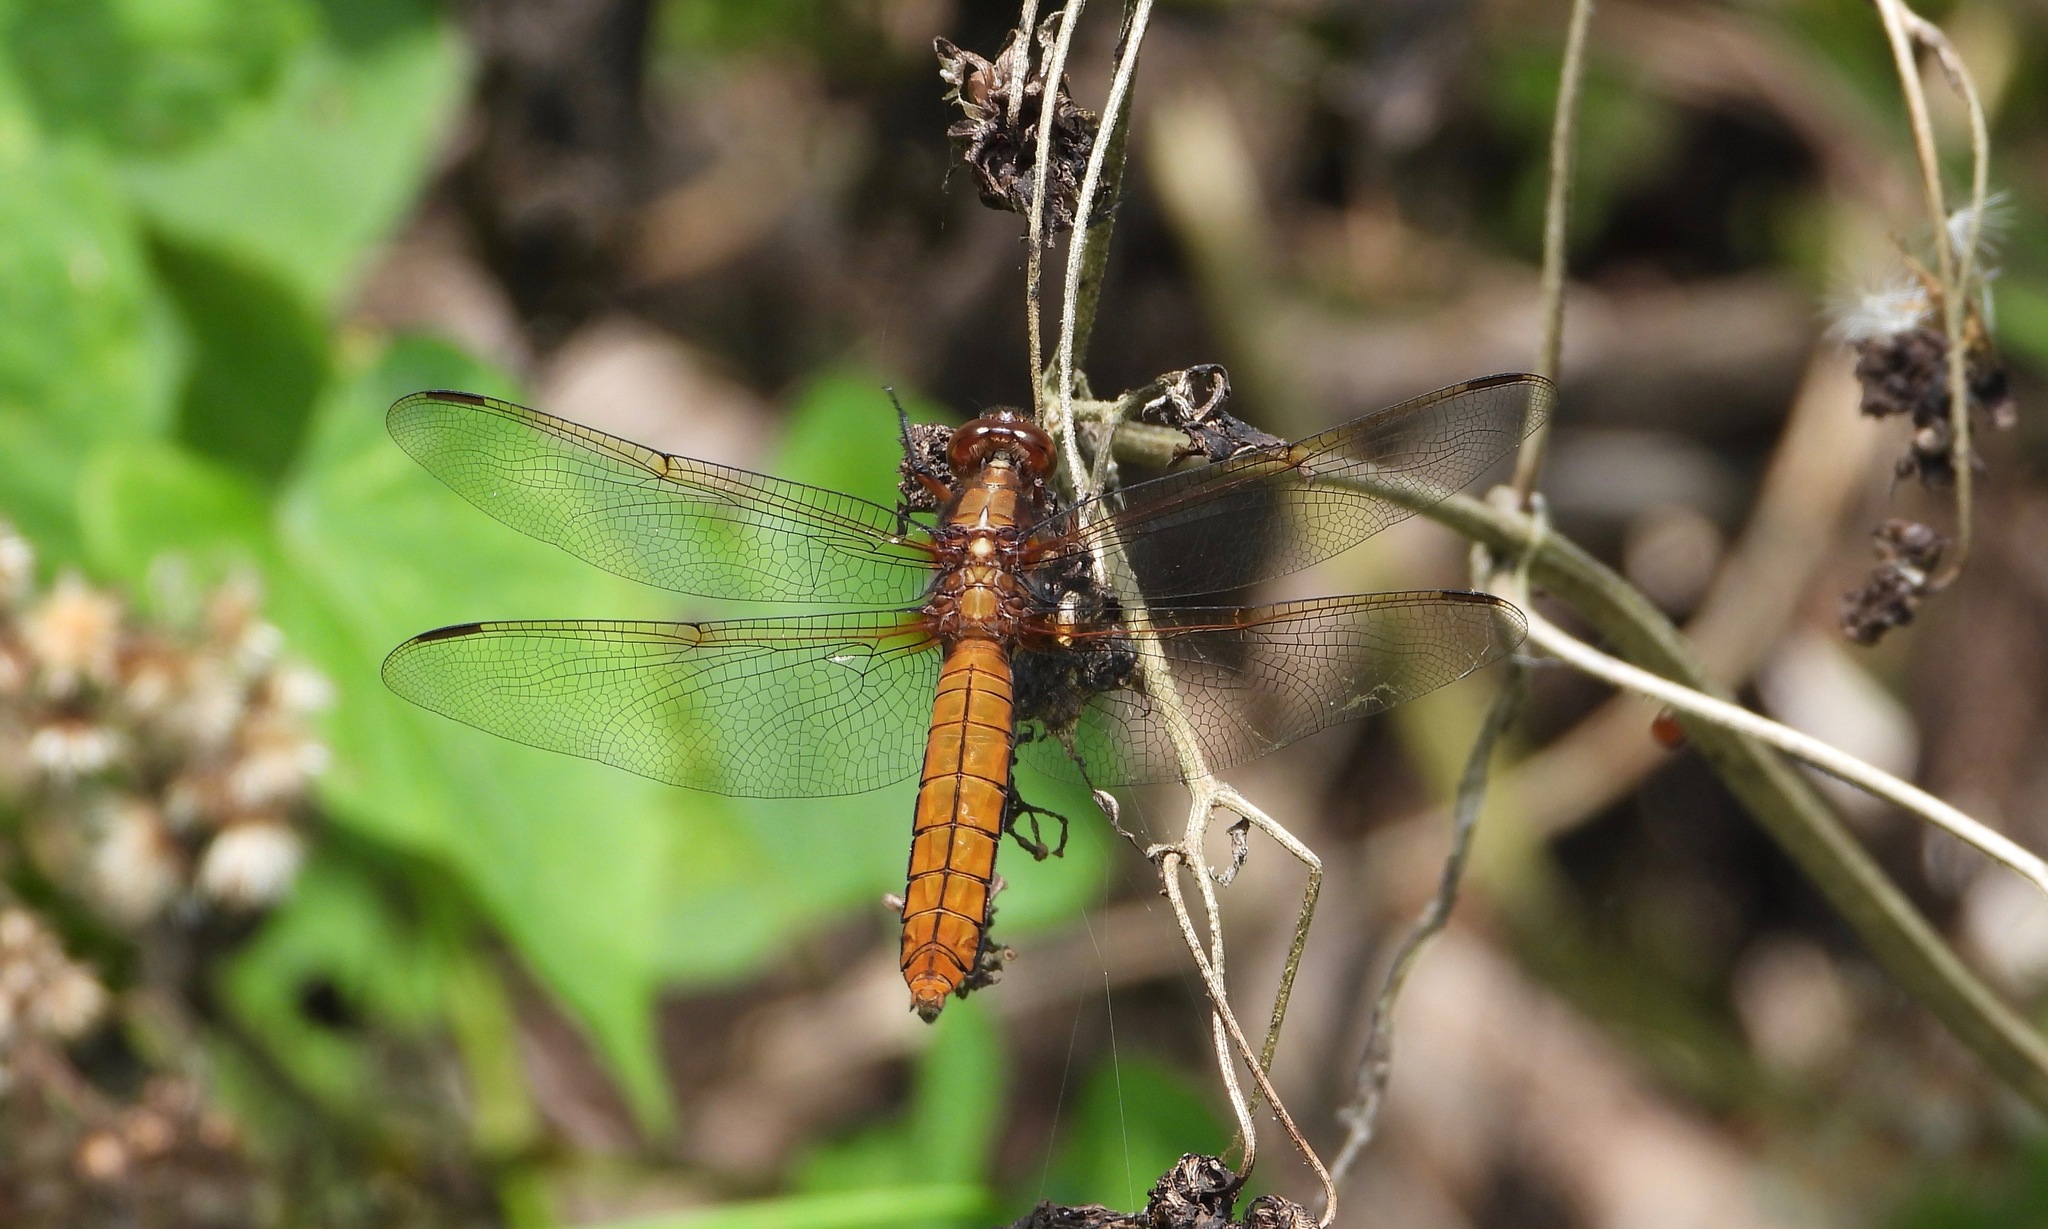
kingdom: Animalia
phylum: Arthropoda
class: Insecta
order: Odonata
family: Libellulidae
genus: Libellula
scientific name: Libellula foliata
